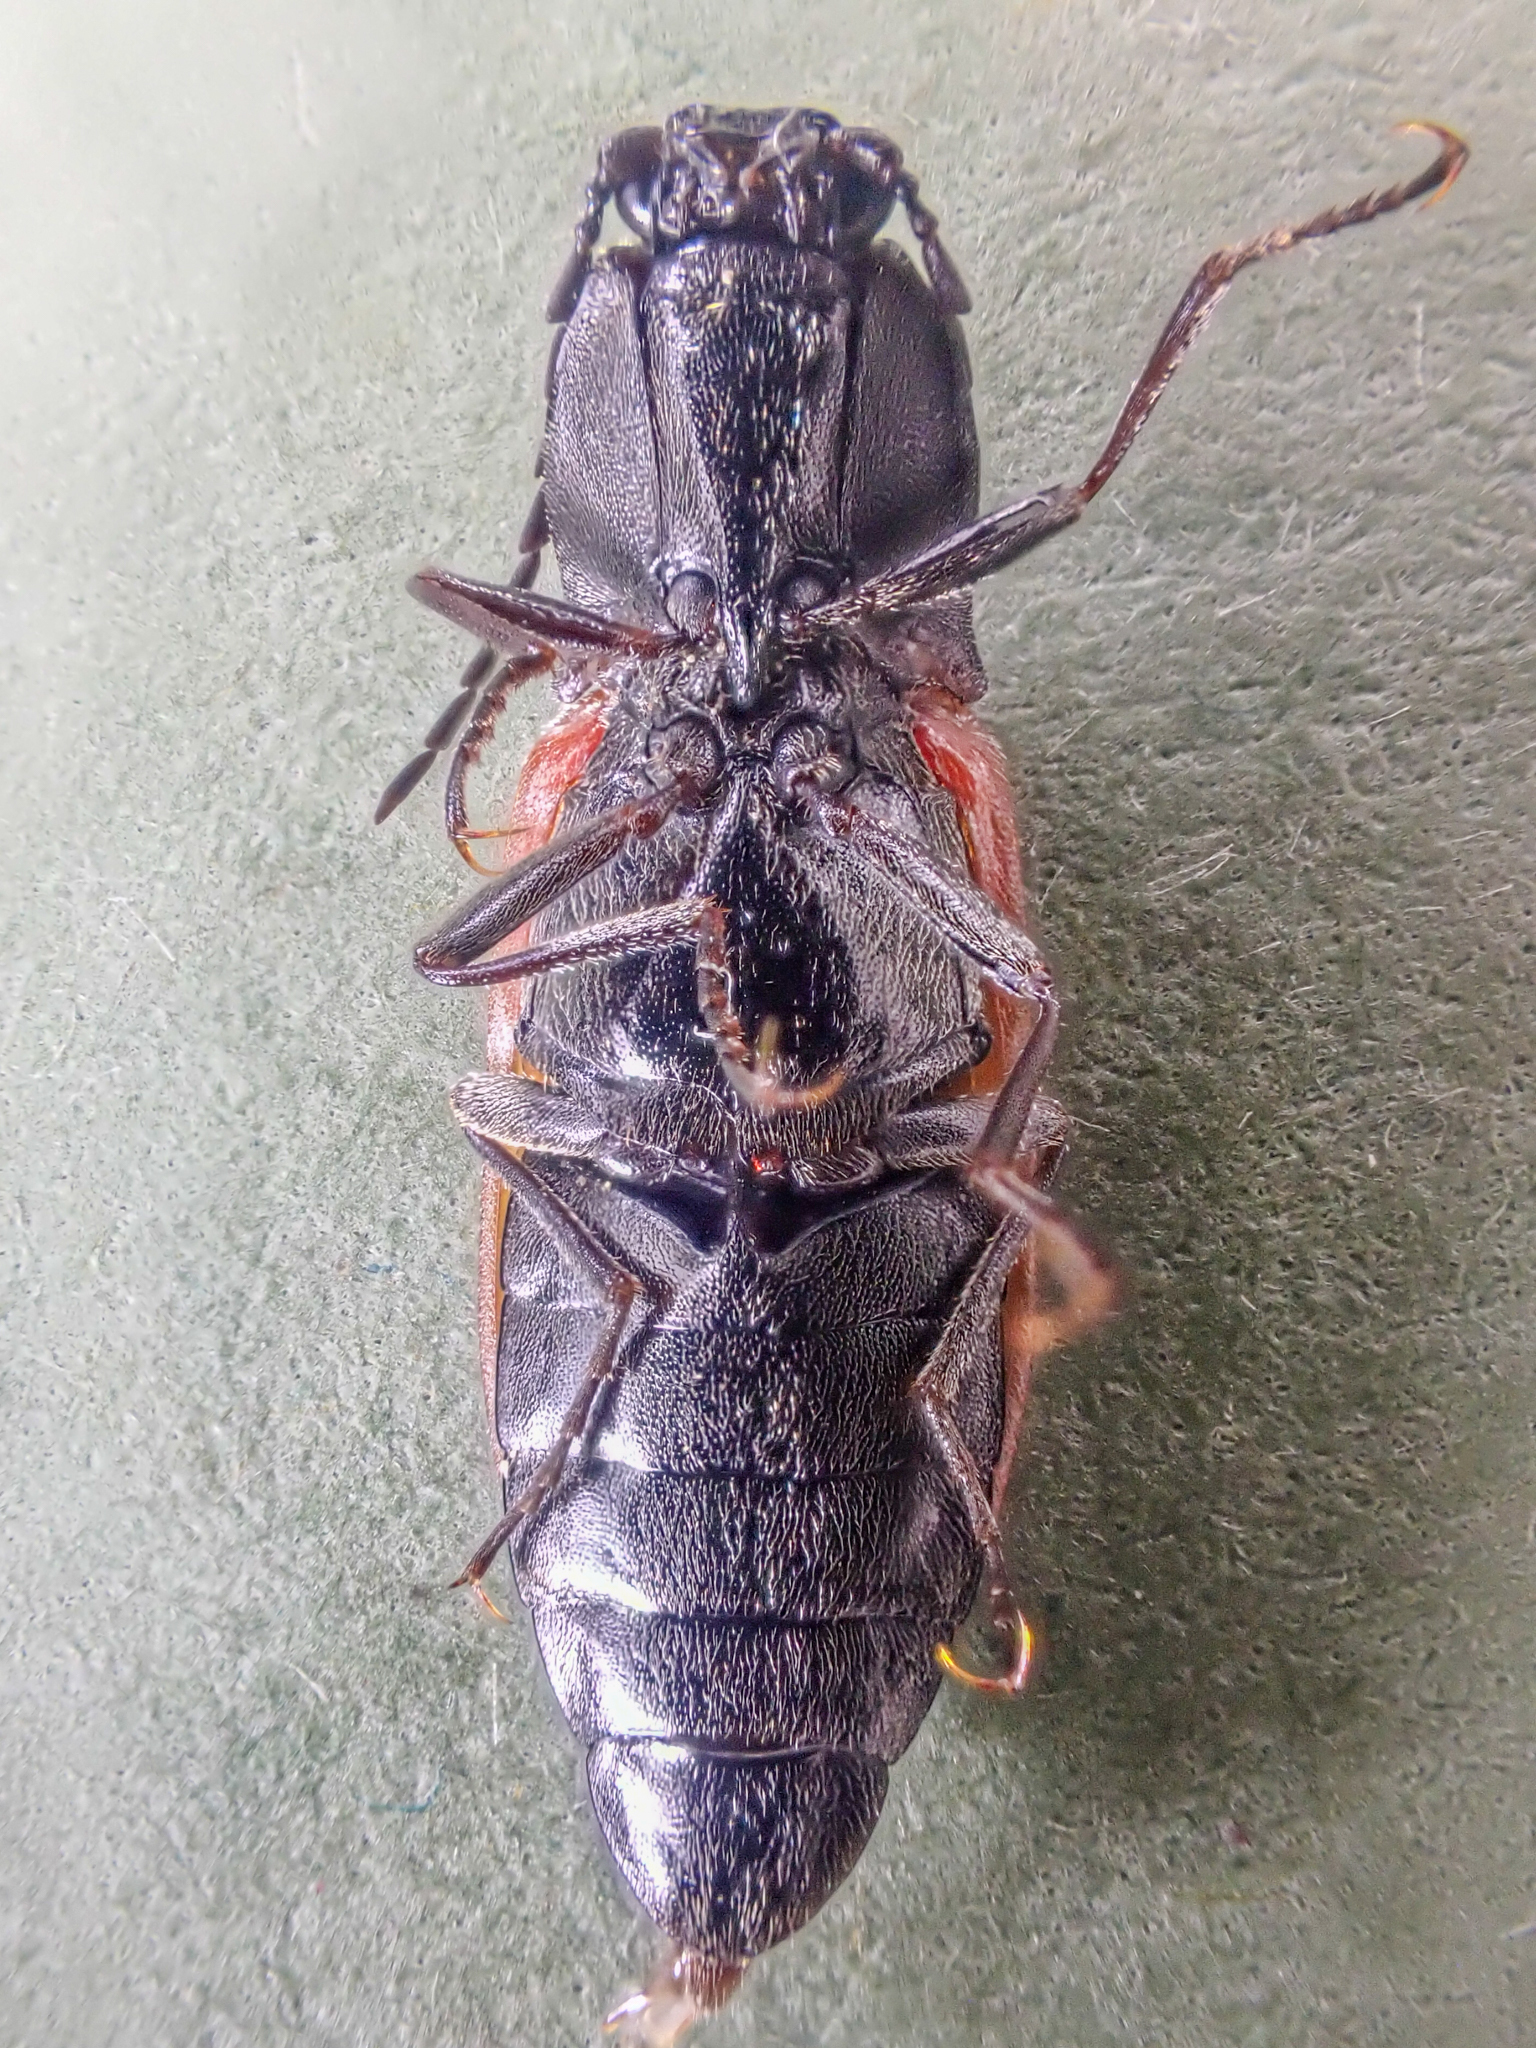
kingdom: Animalia
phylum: Arthropoda
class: Insecta
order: Coleoptera
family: Elateridae
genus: Stropenron
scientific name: Stropenron nigricollis
